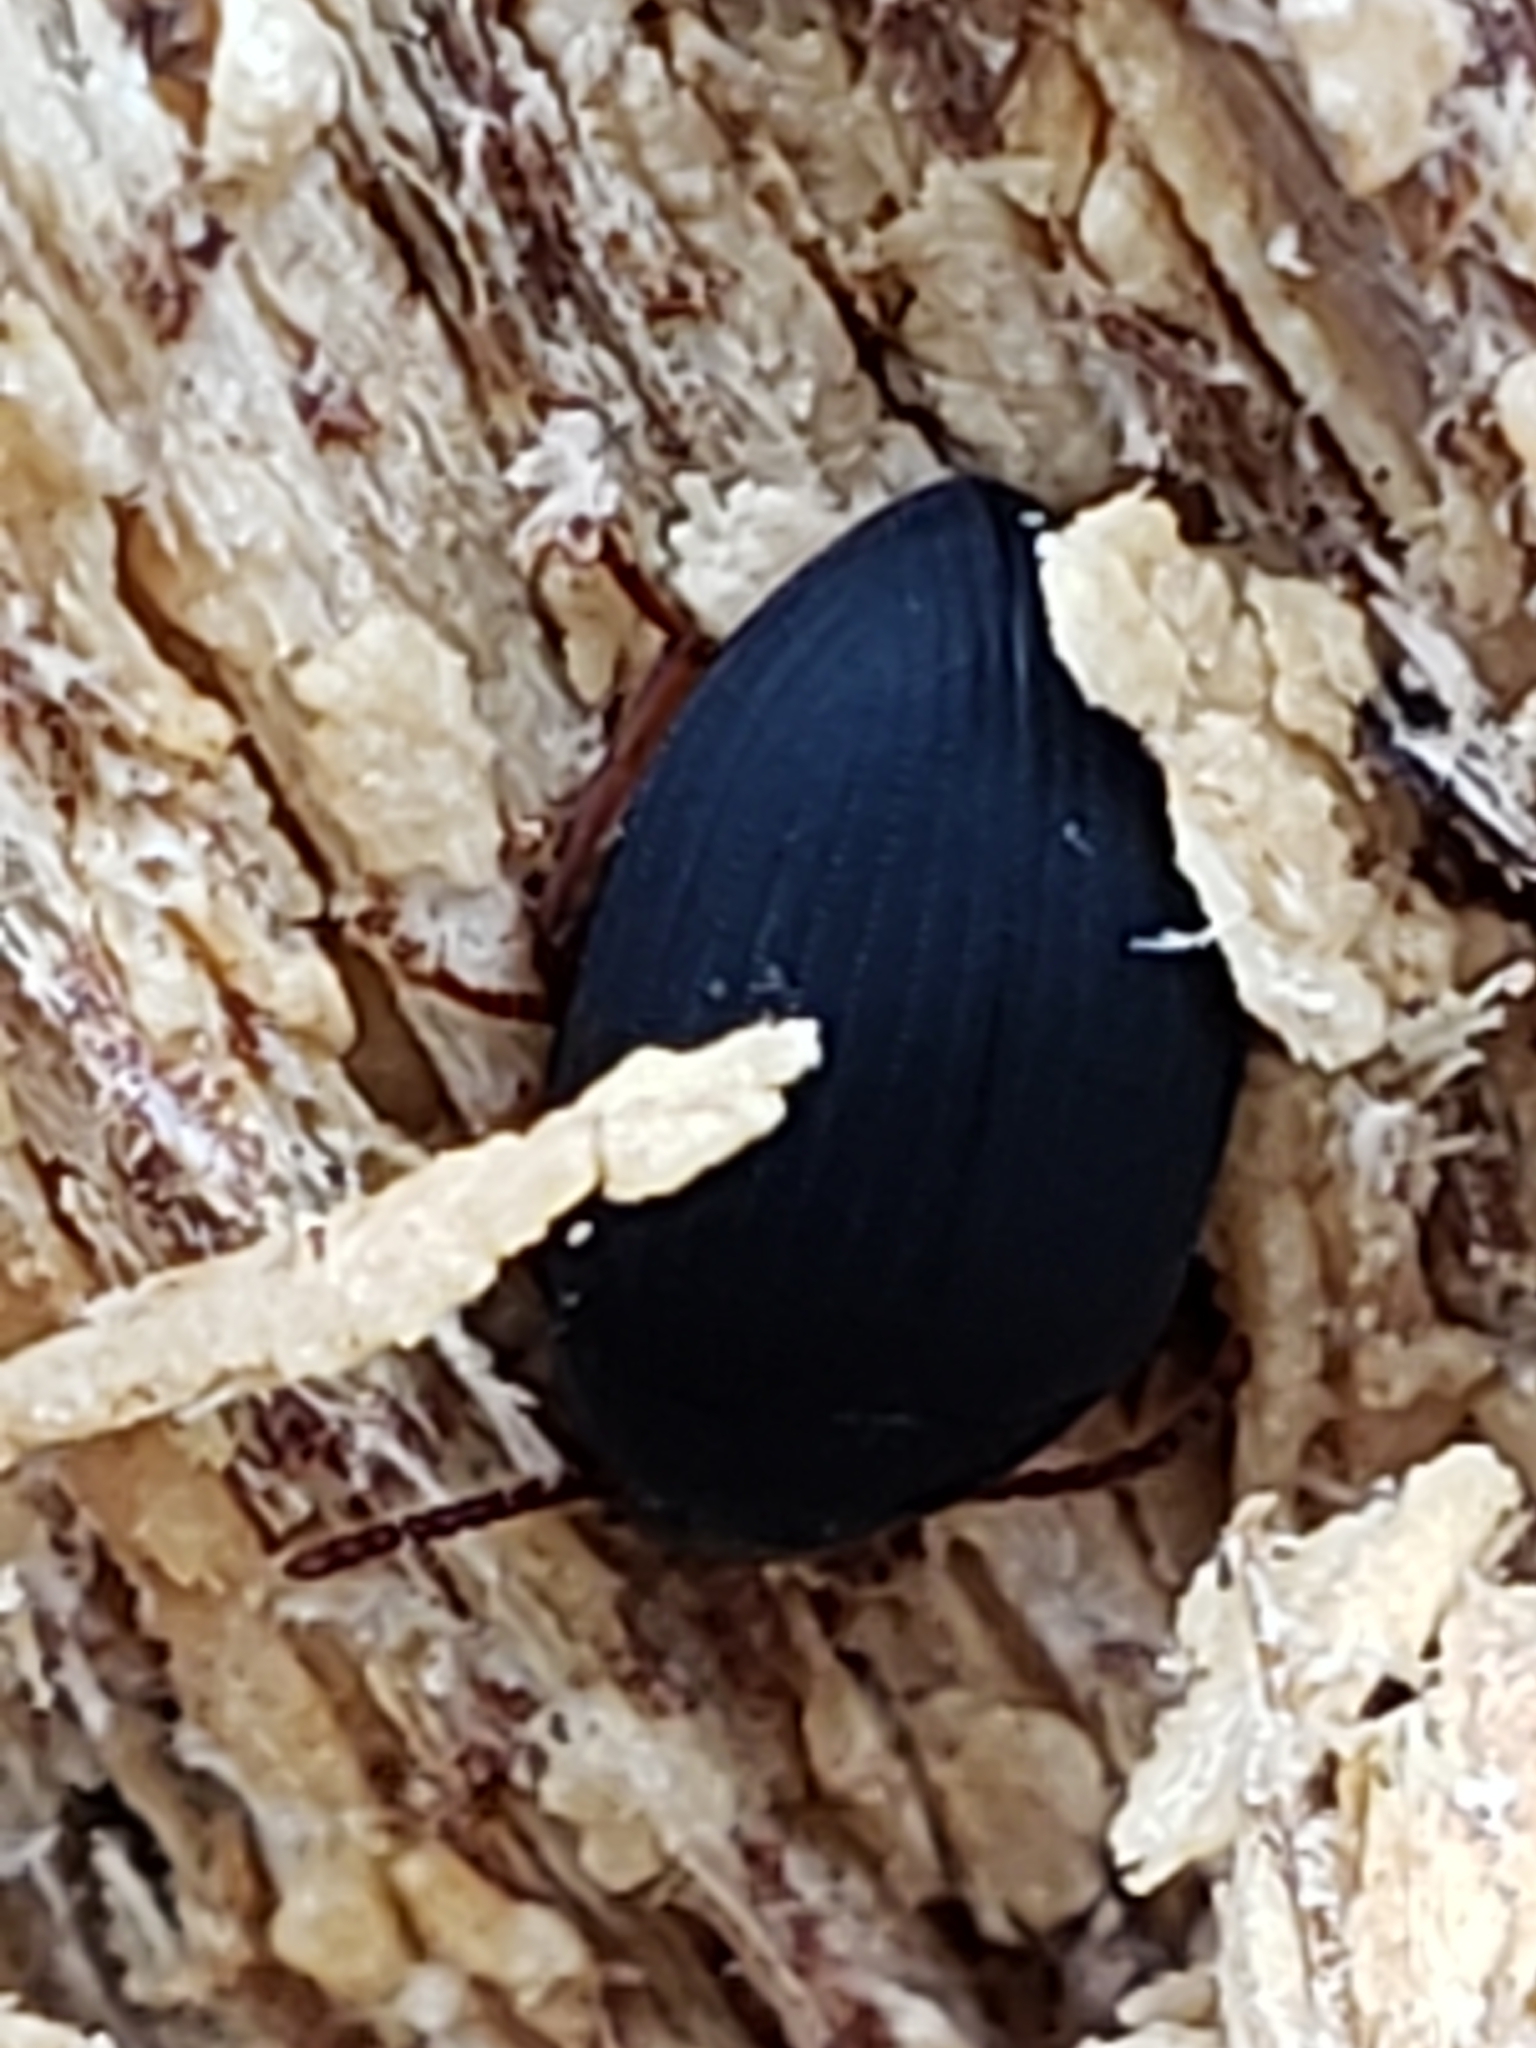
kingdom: Animalia
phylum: Arthropoda
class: Insecta
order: Coleoptera
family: Tenebrionidae
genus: Platydema
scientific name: Platydema ruficornis
